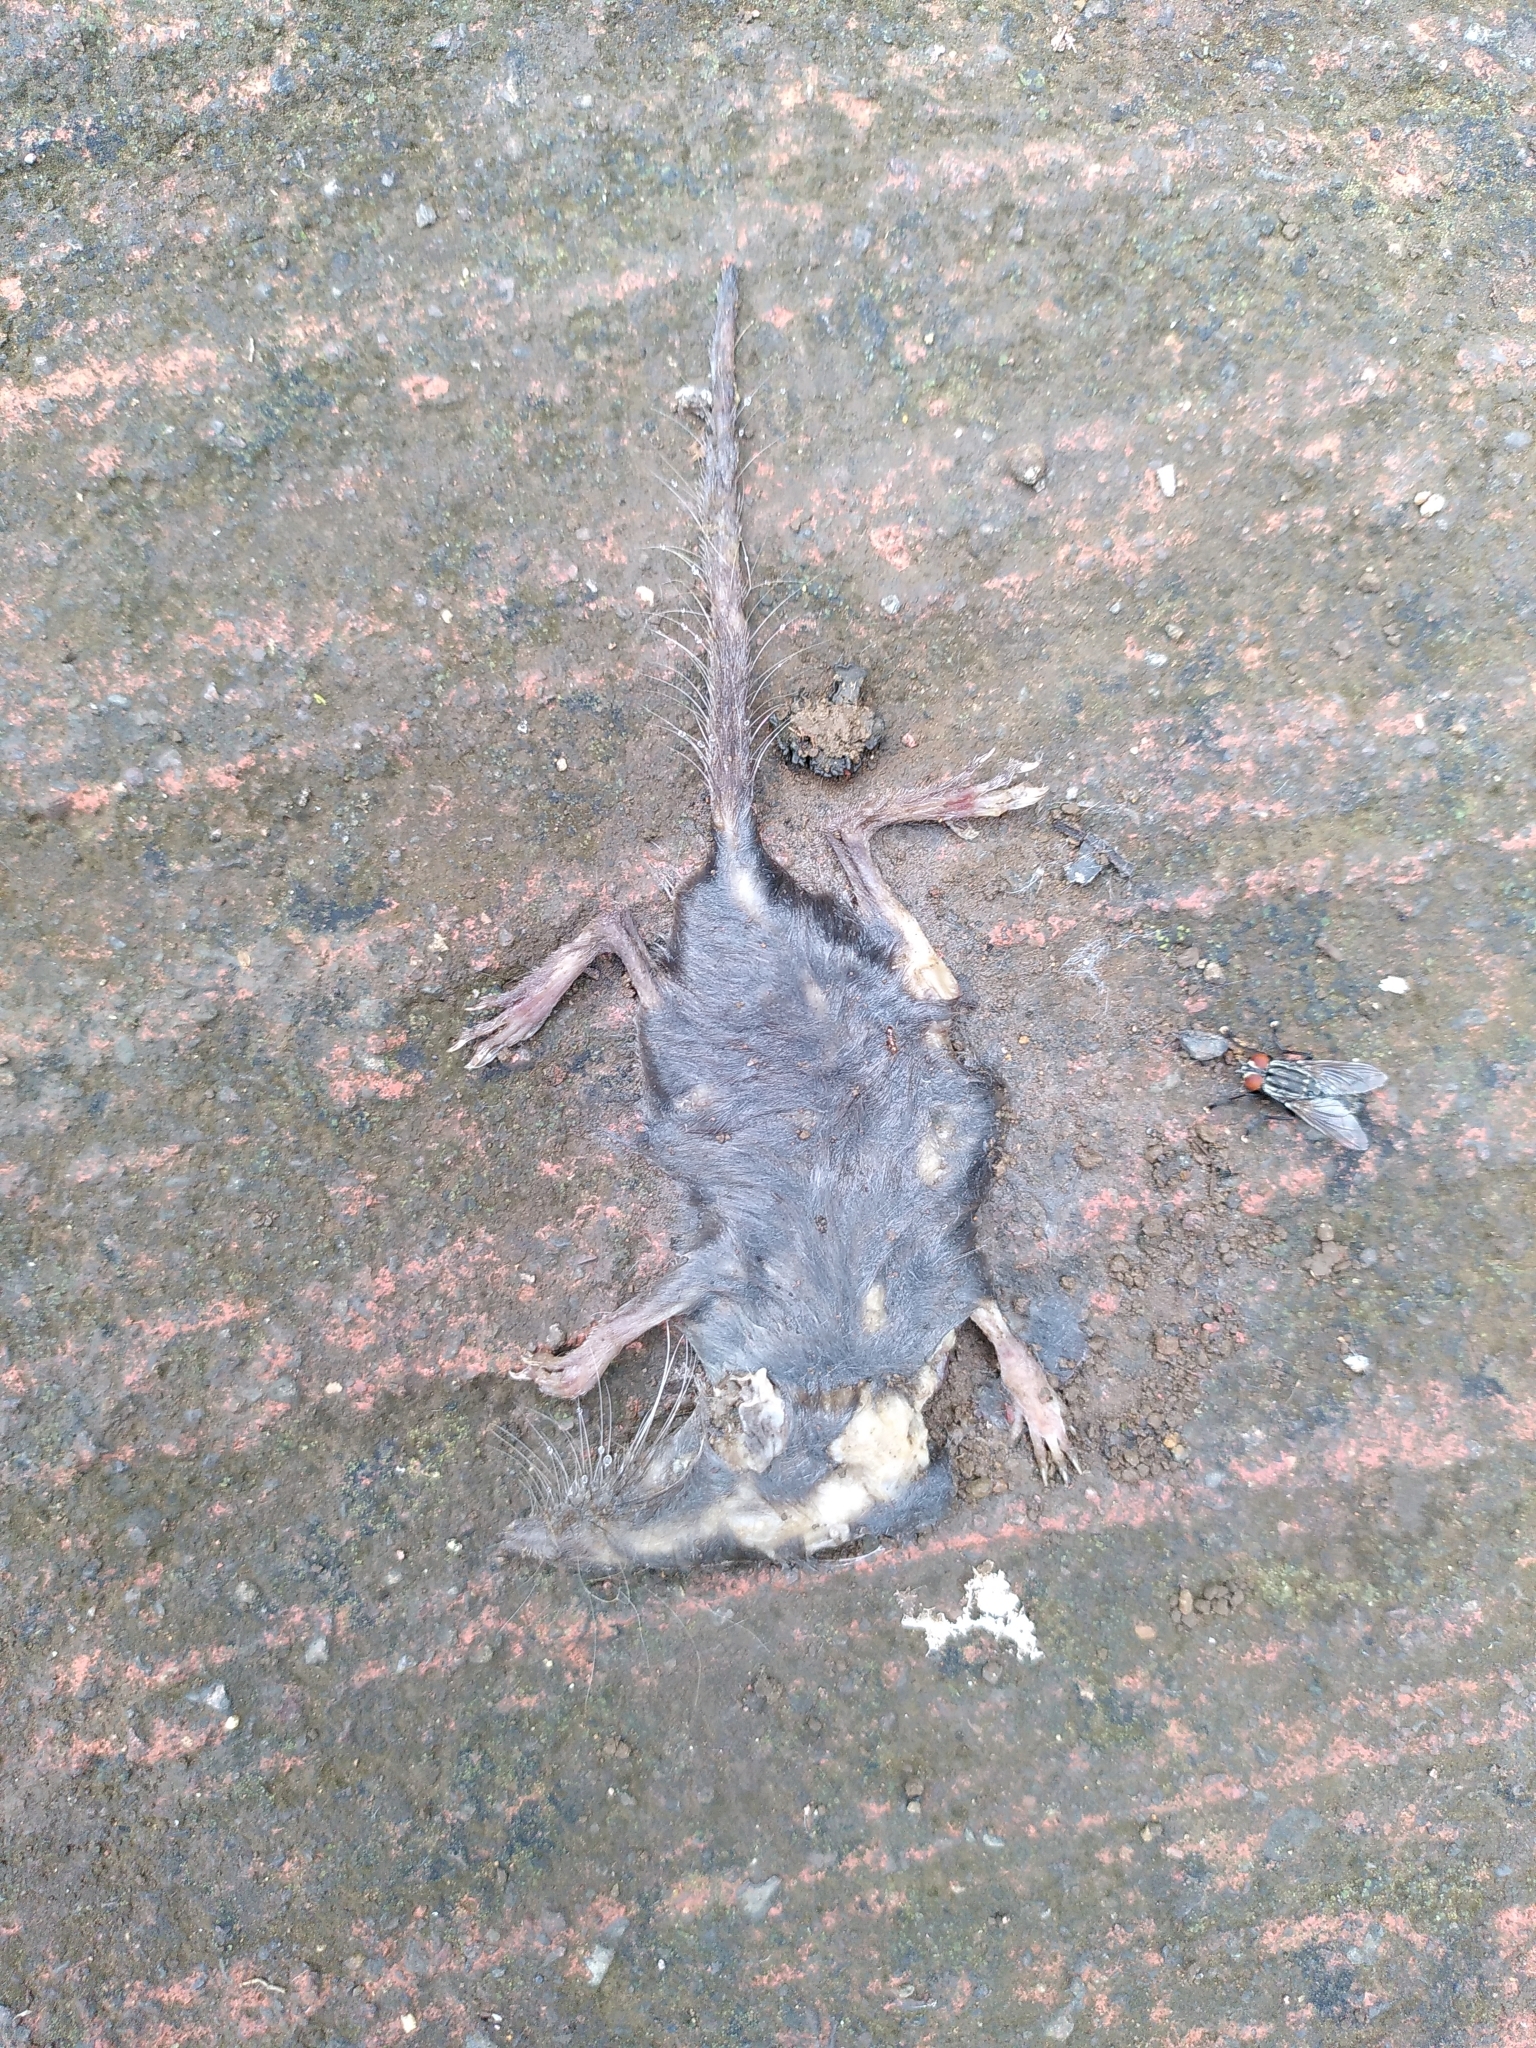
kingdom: Animalia
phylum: Chordata
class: Mammalia
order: Soricomorpha
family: Soricidae
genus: Suncus
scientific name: Suncus murinus
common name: Asian house shrew
